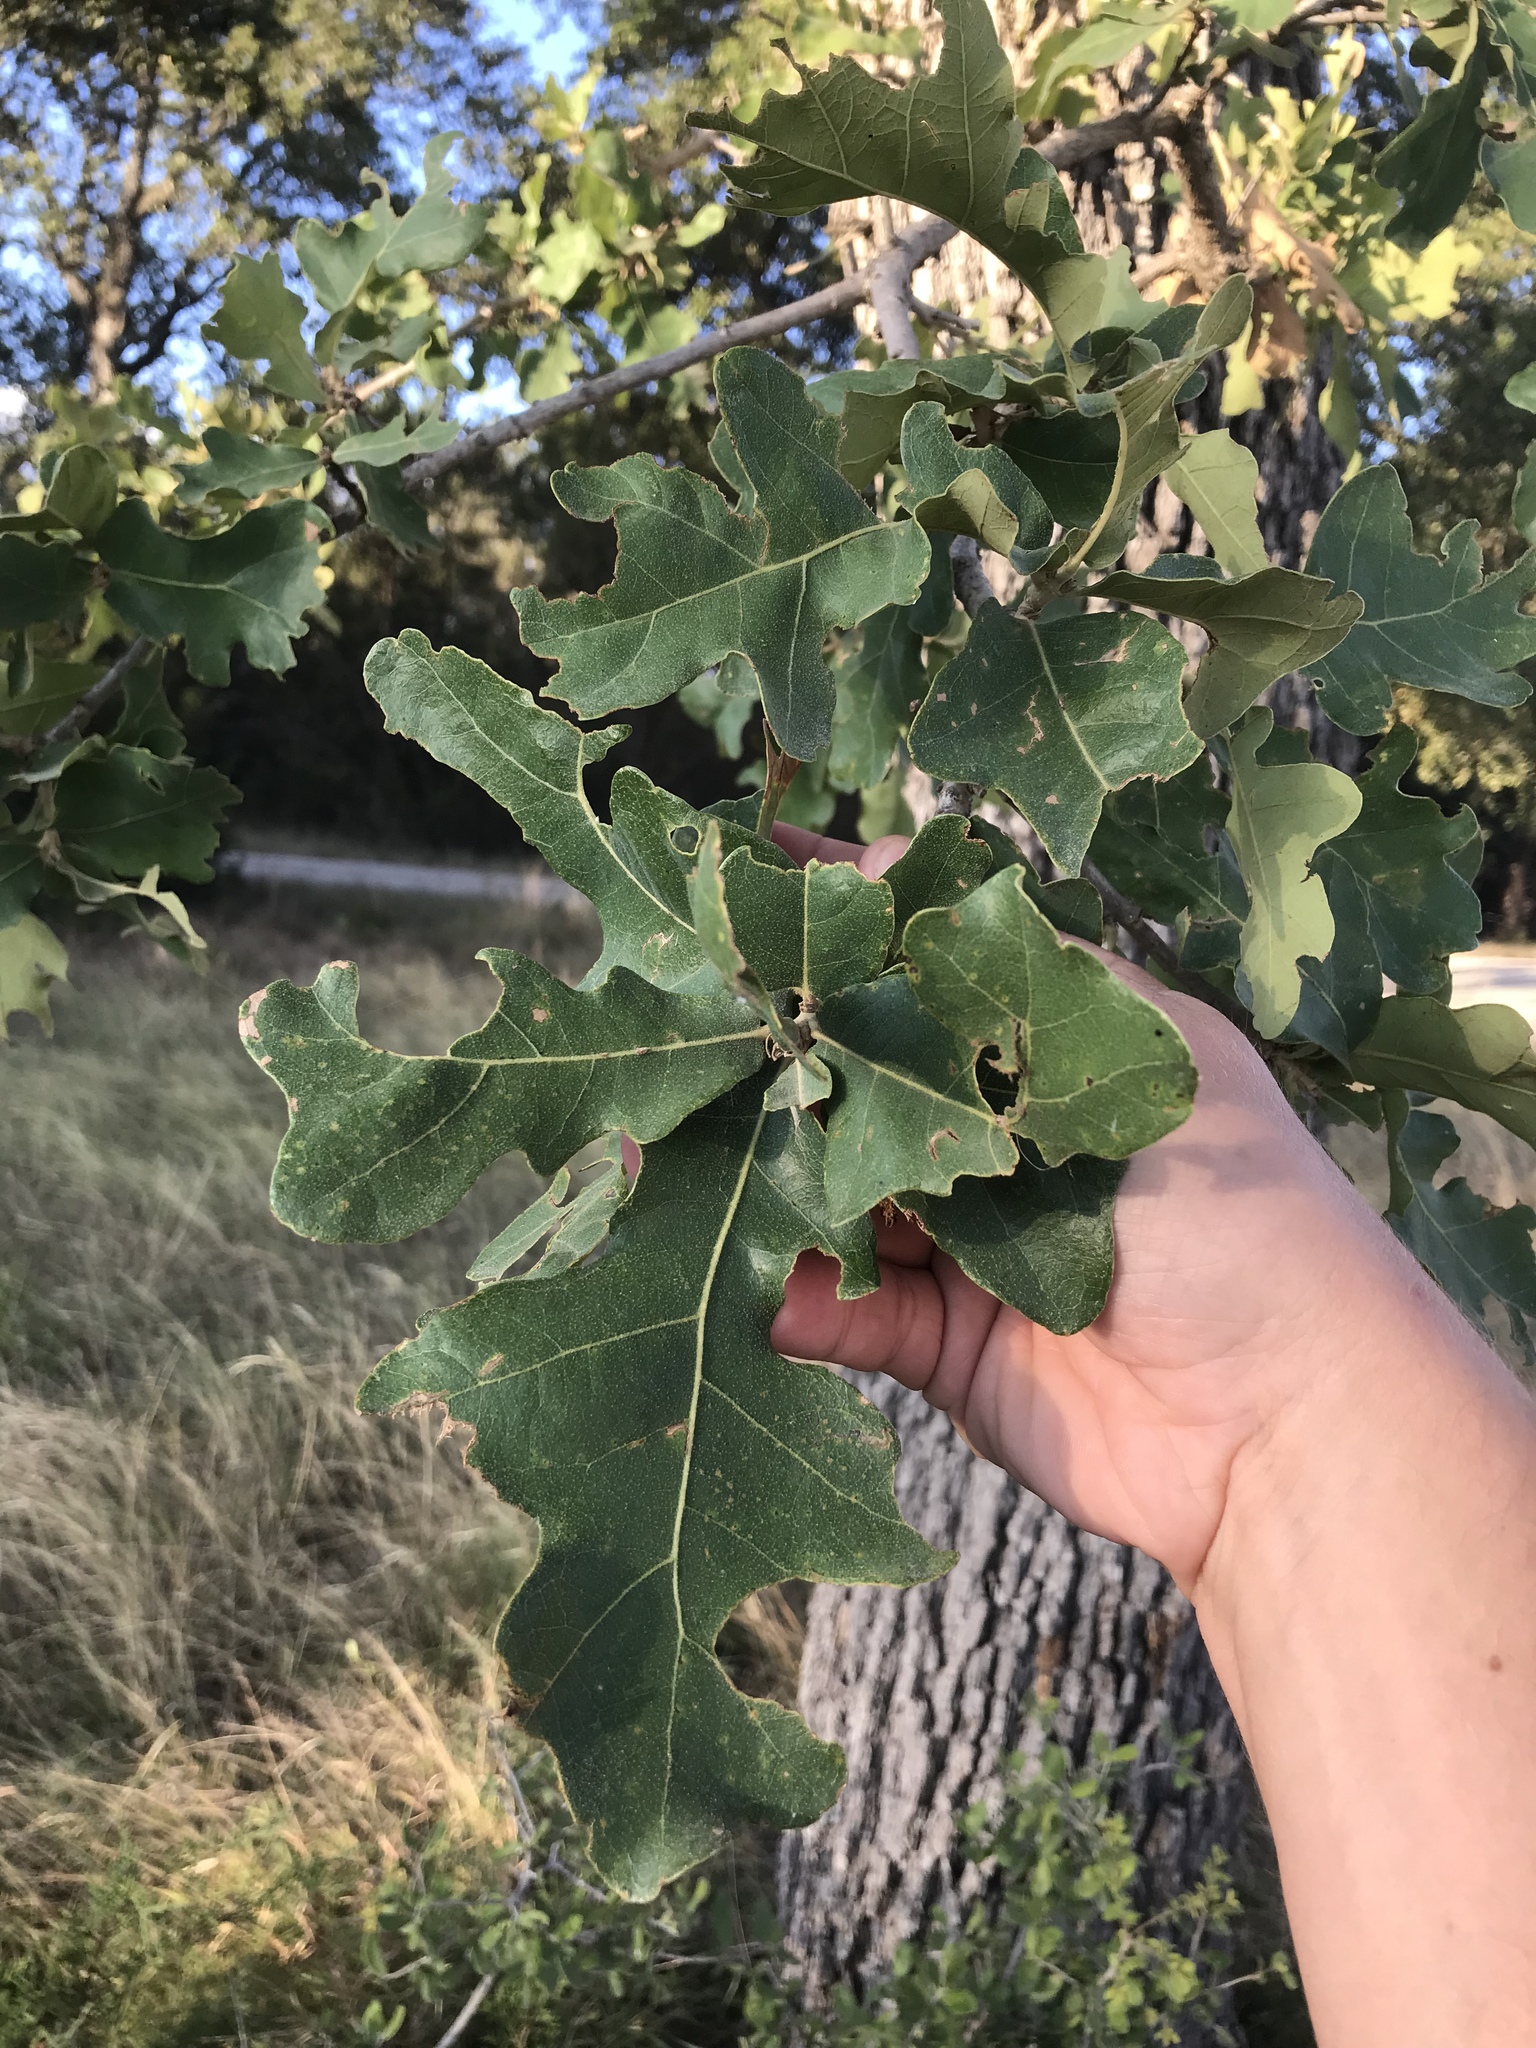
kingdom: Plantae
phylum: Tracheophyta
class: Magnoliopsida
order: Fagales
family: Fagaceae
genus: Quercus
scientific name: Quercus stellata
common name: Post oak
